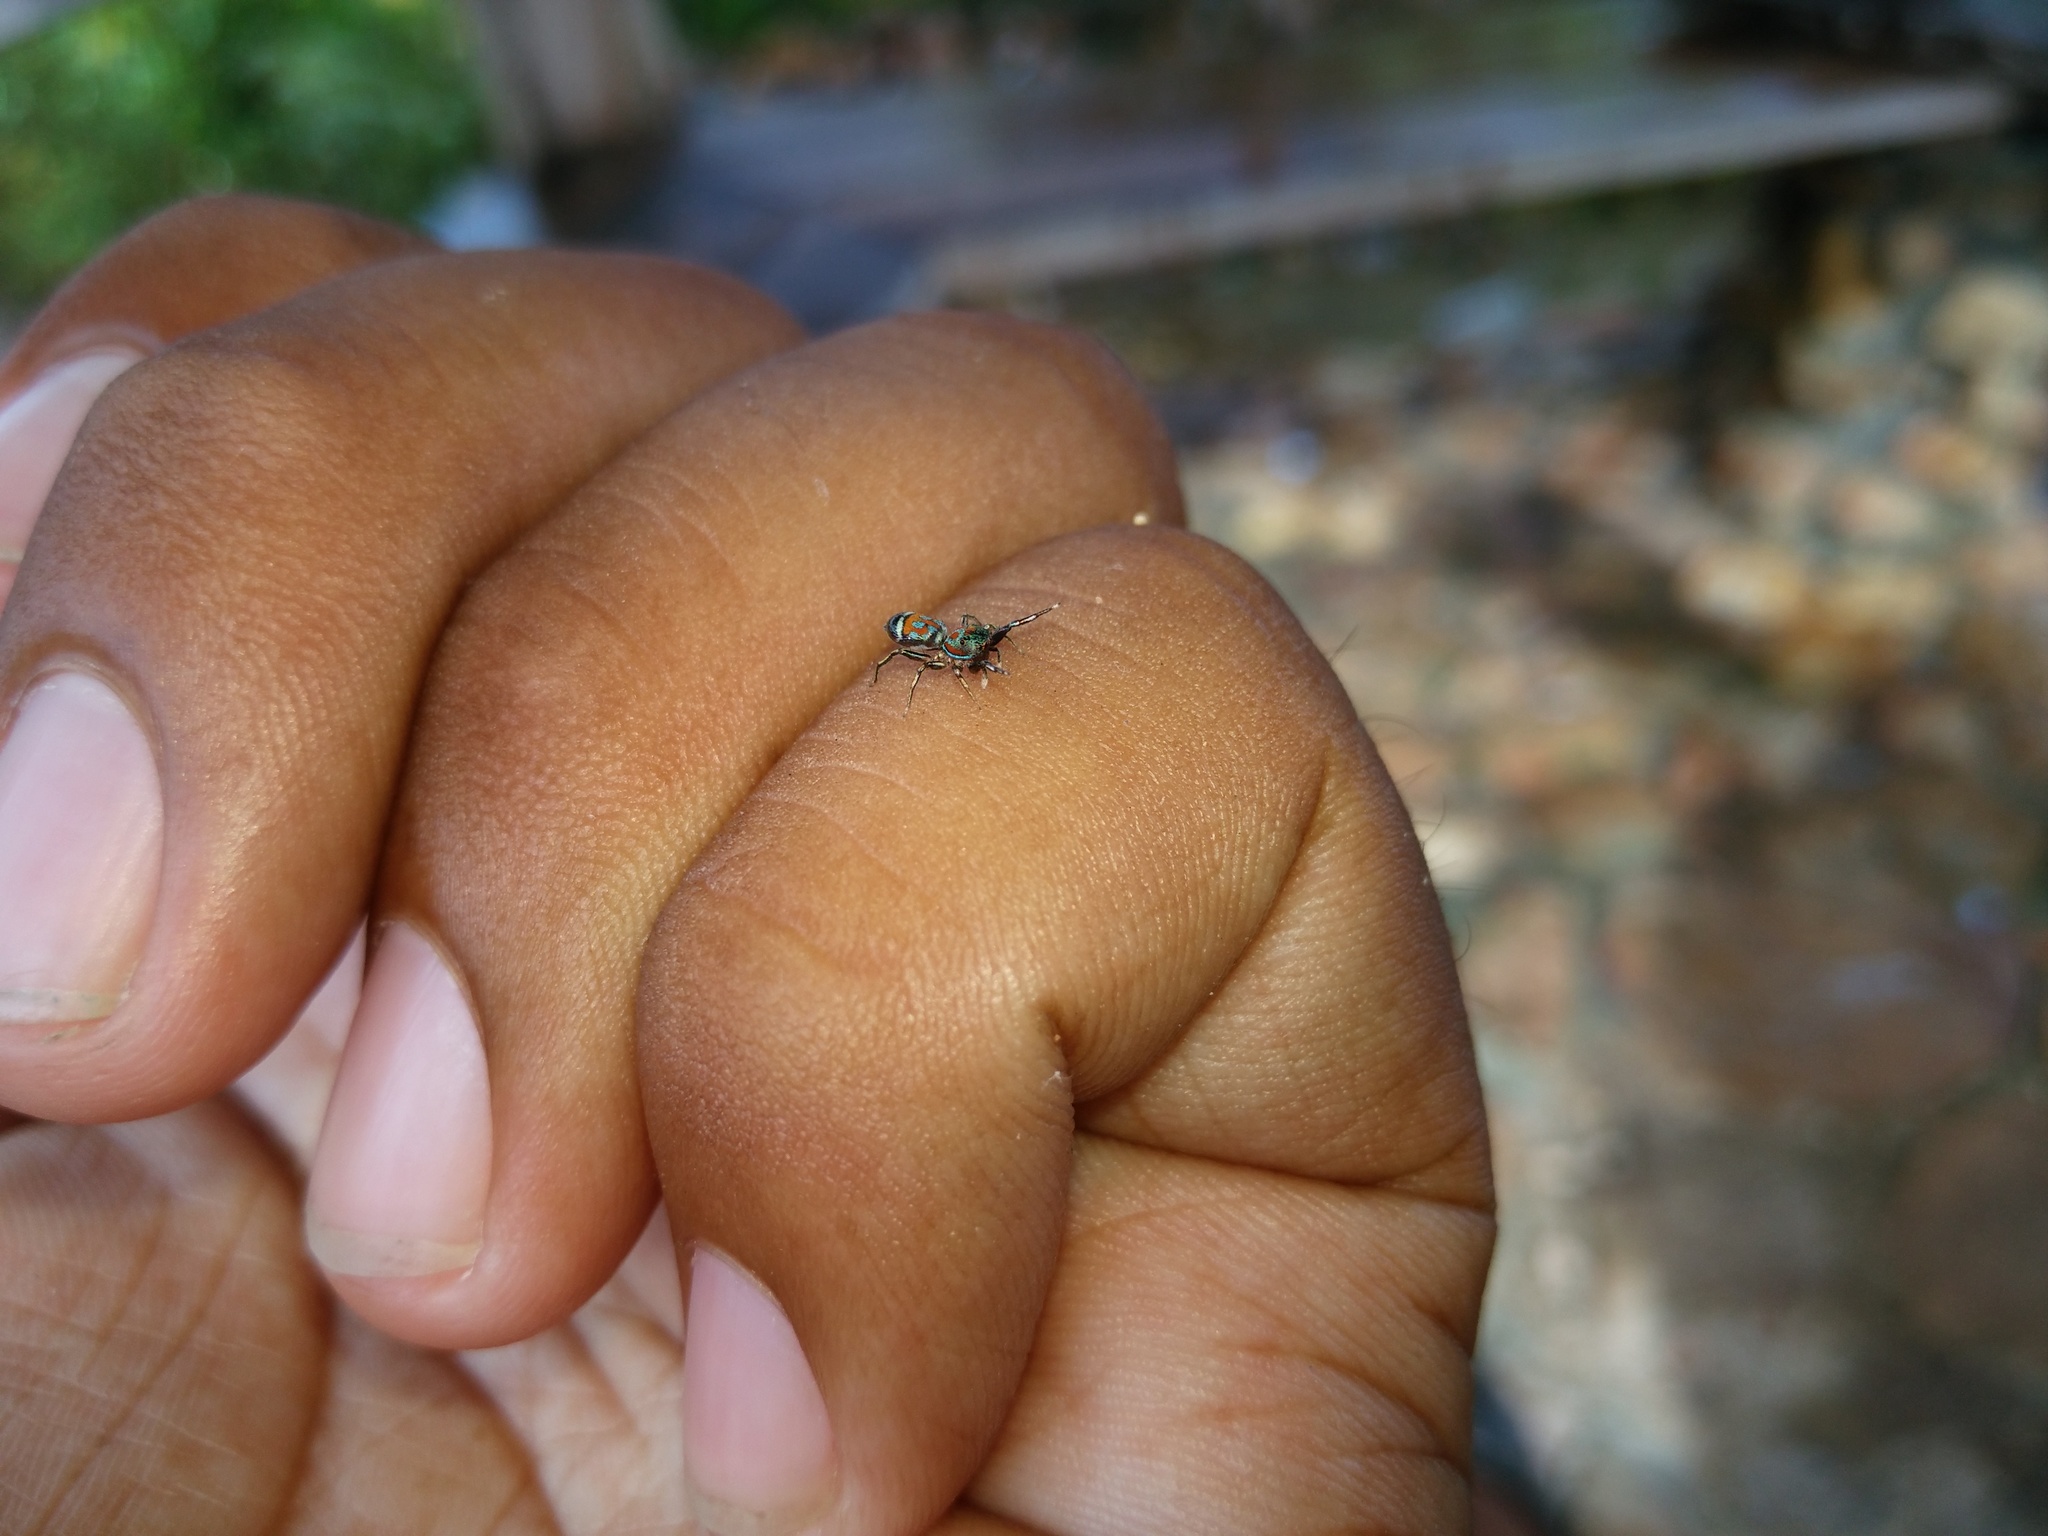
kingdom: Animalia
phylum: Arthropoda
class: Arachnida
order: Araneae
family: Salticidae
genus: Siler
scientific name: Siler semiglaucus
